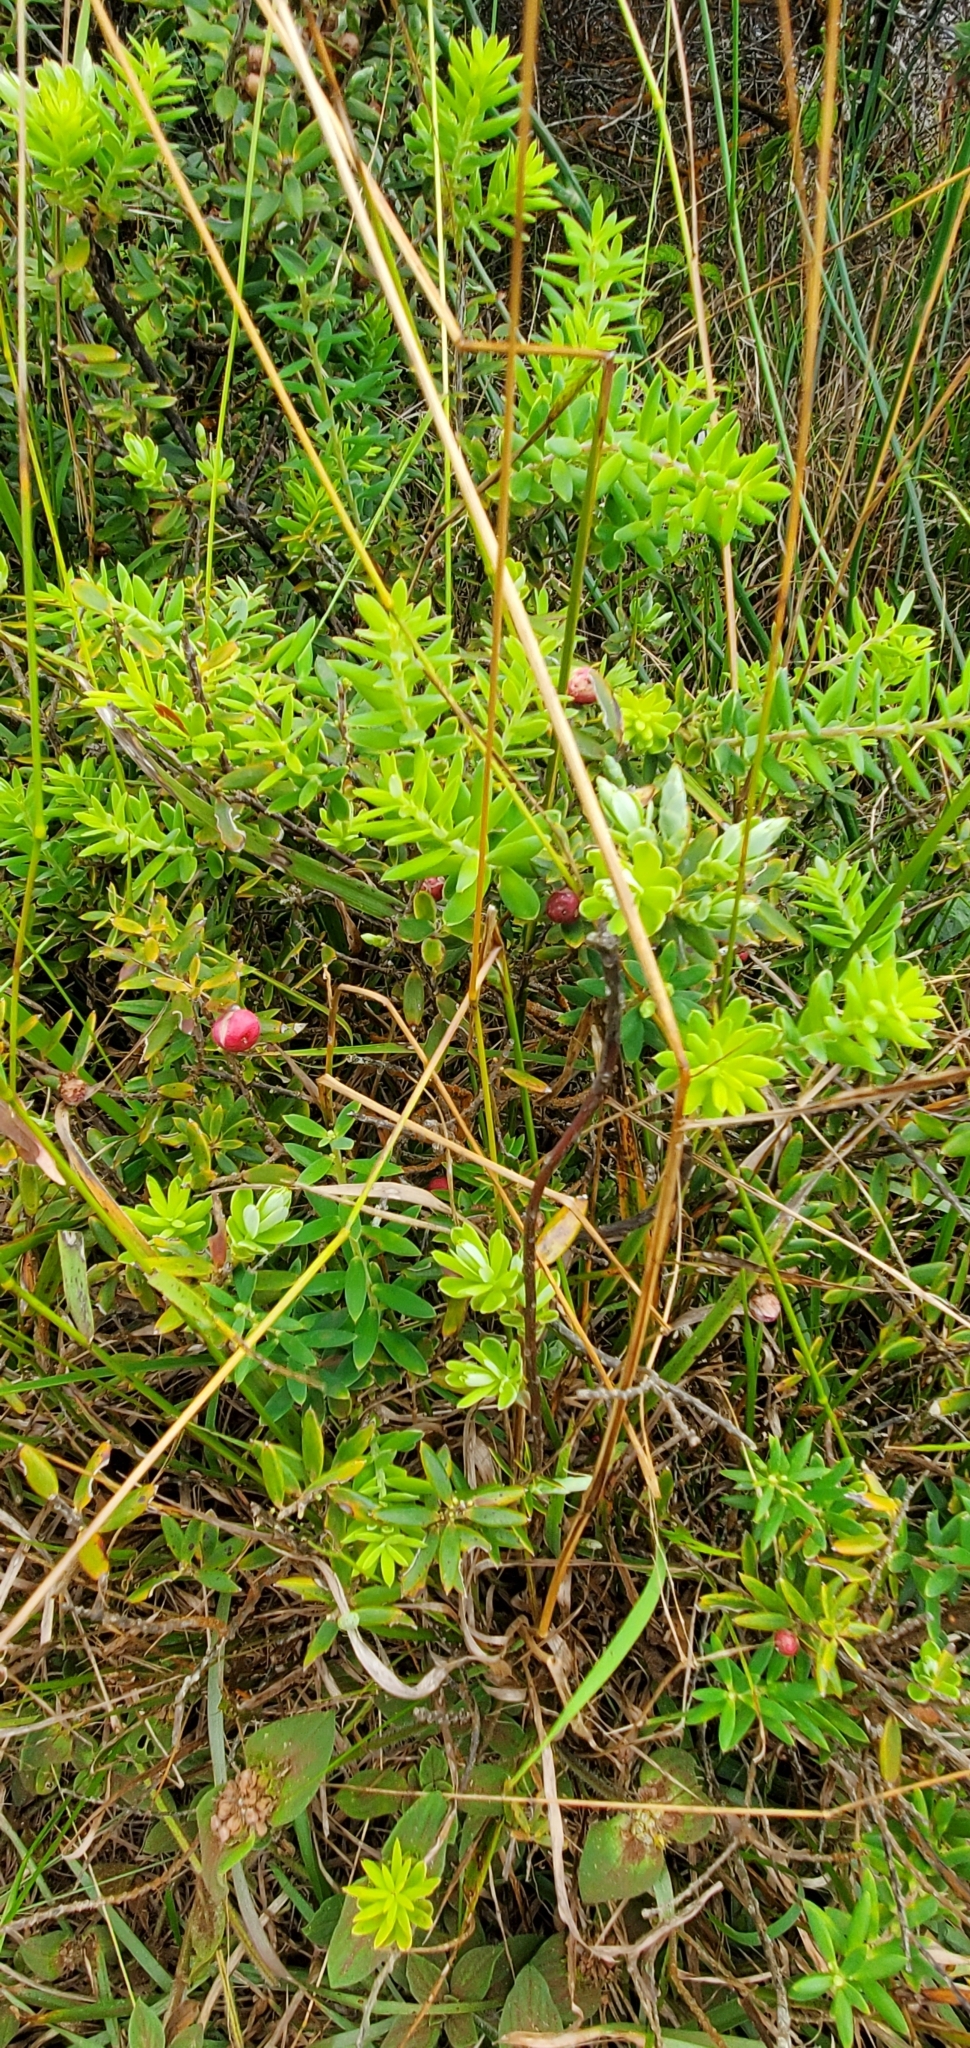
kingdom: Plantae
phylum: Tracheophyta
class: Magnoliopsida
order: Ericales
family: Ericaceae
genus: Leptecophylla
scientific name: Leptecophylla tameiameiae
